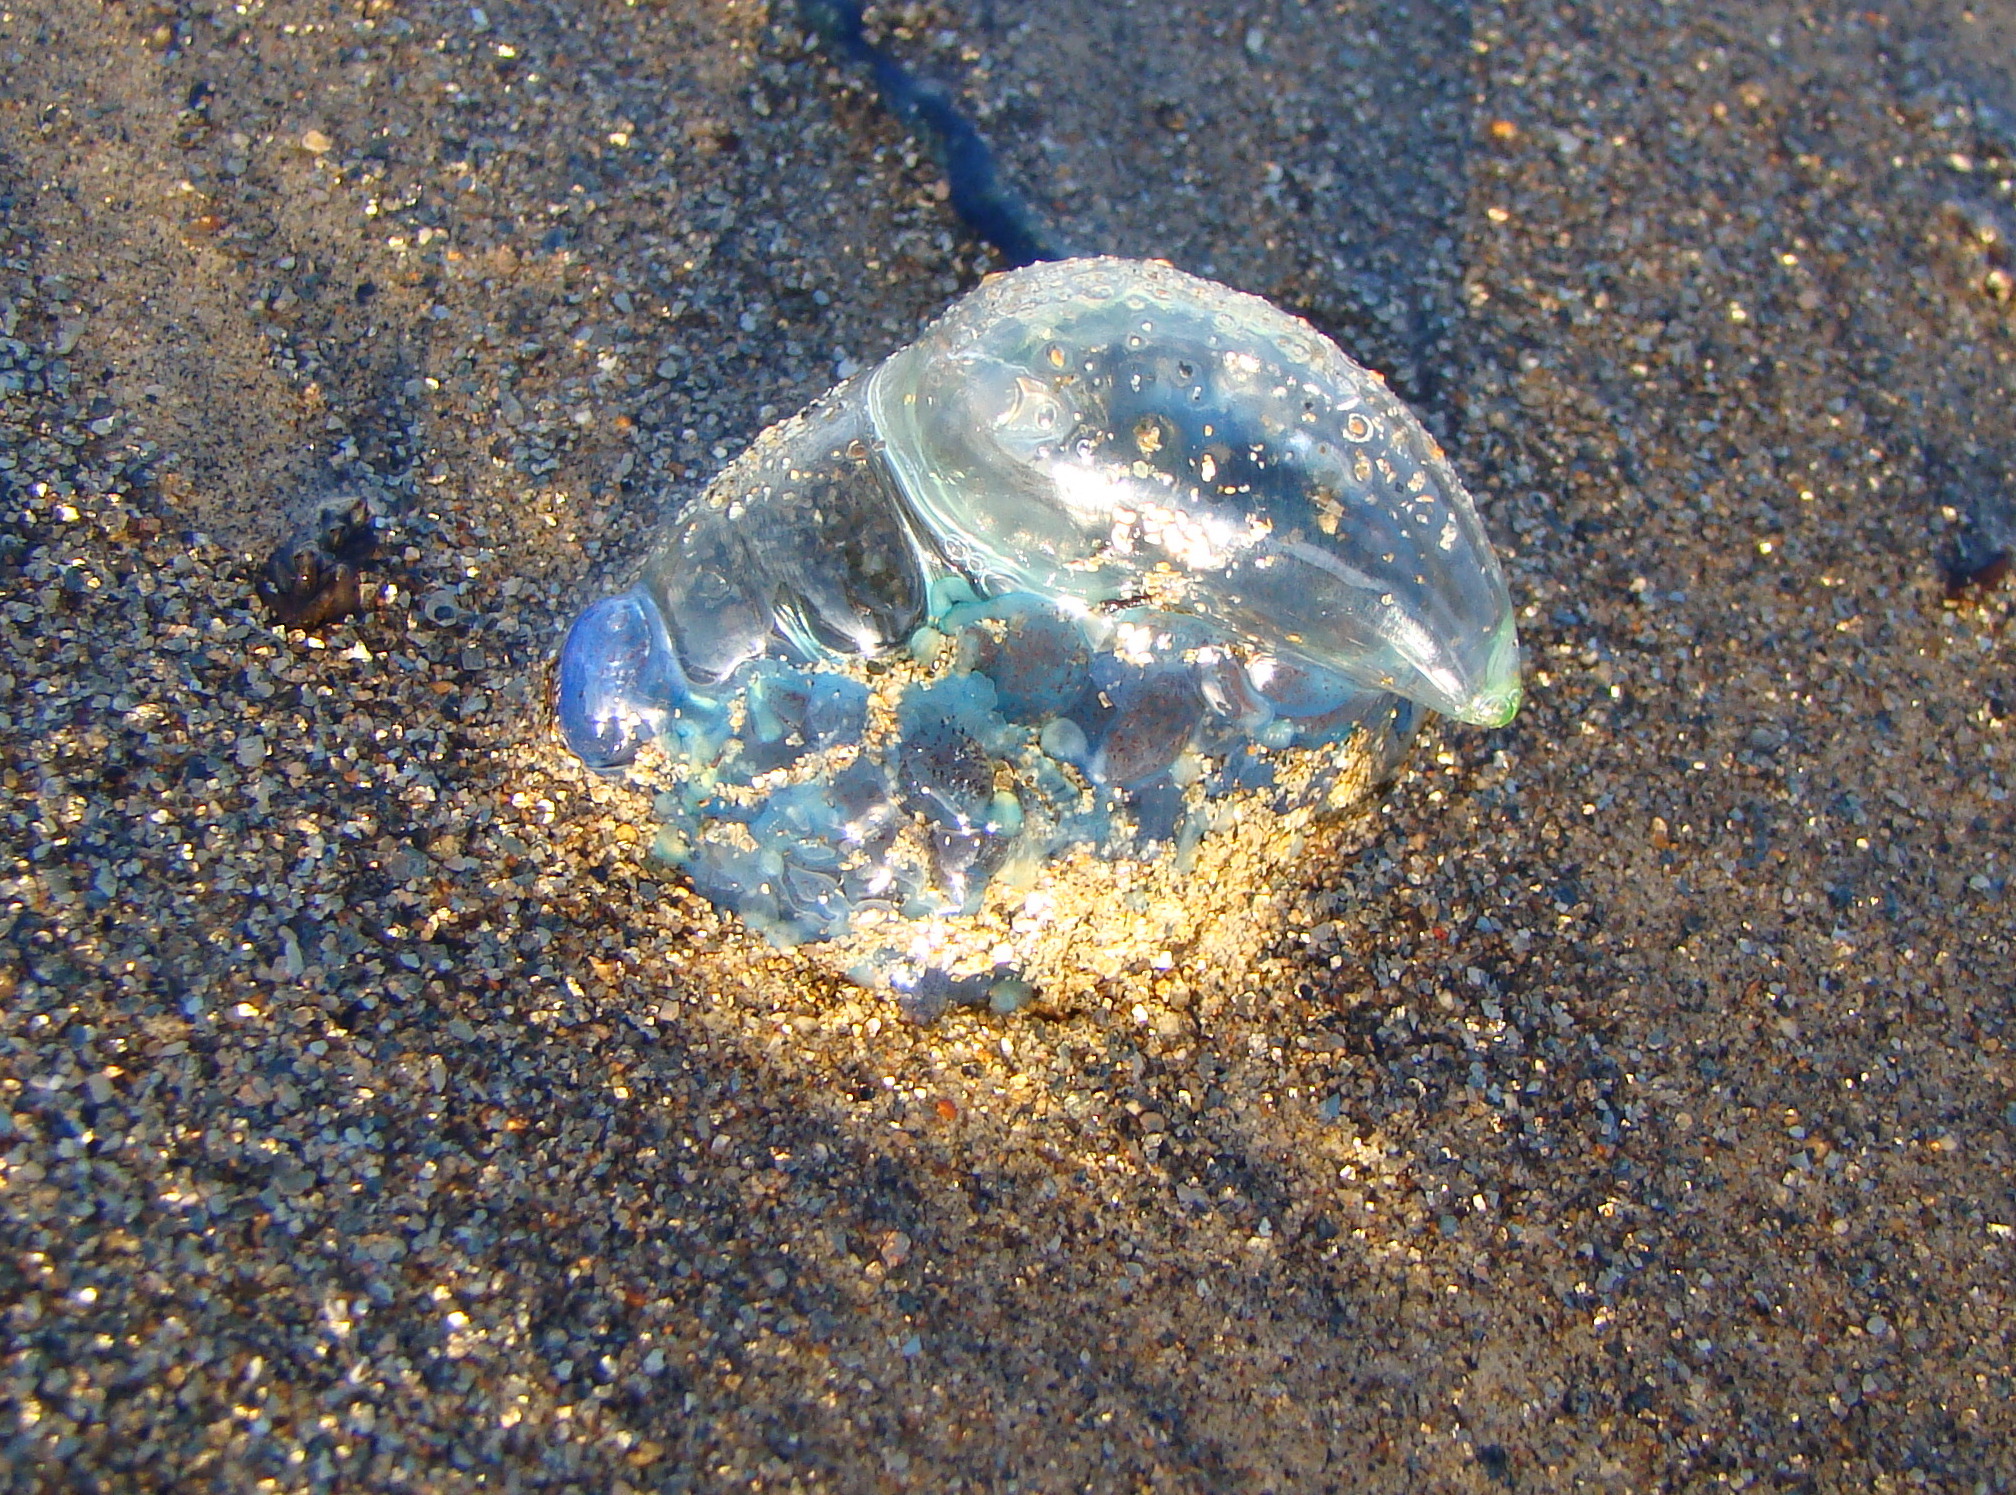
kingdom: Animalia
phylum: Cnidaria
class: Hydrozoa
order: Siphonophorae
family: Physaliidae
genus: Physalia
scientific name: Physalia physalis
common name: Portuguese man-of-war
